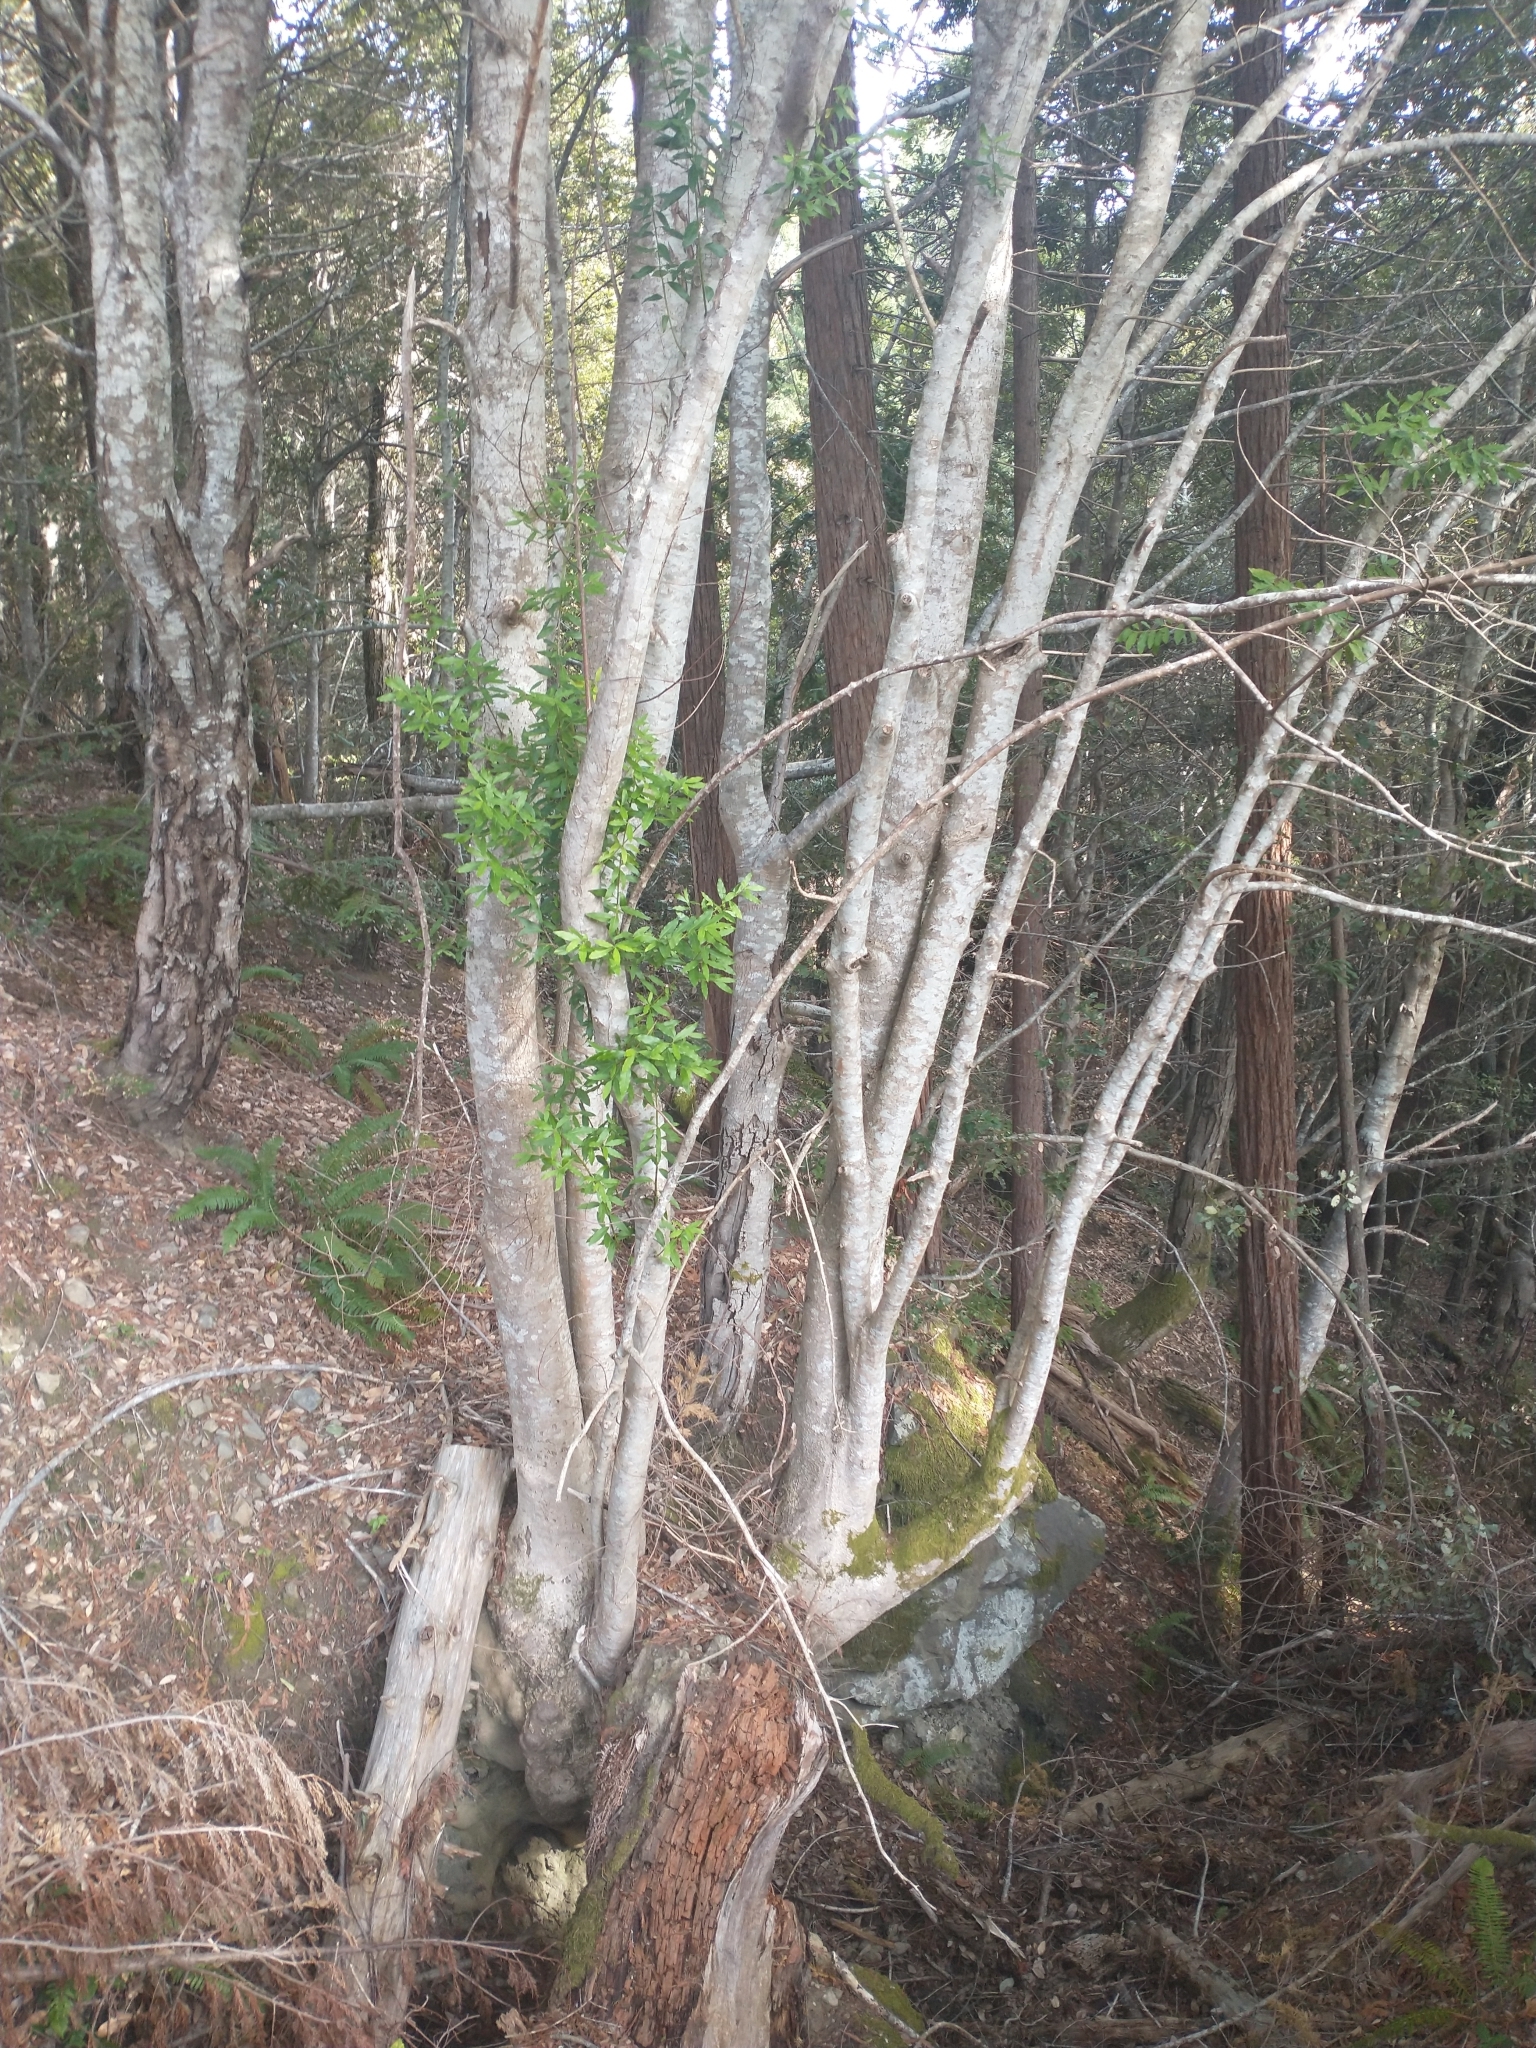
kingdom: Plantae
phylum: Tracheophyta
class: Magnoliopsida
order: Laurales
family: Lauraceae
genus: Umbellularia
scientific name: Umbellularia californica
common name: California bay
